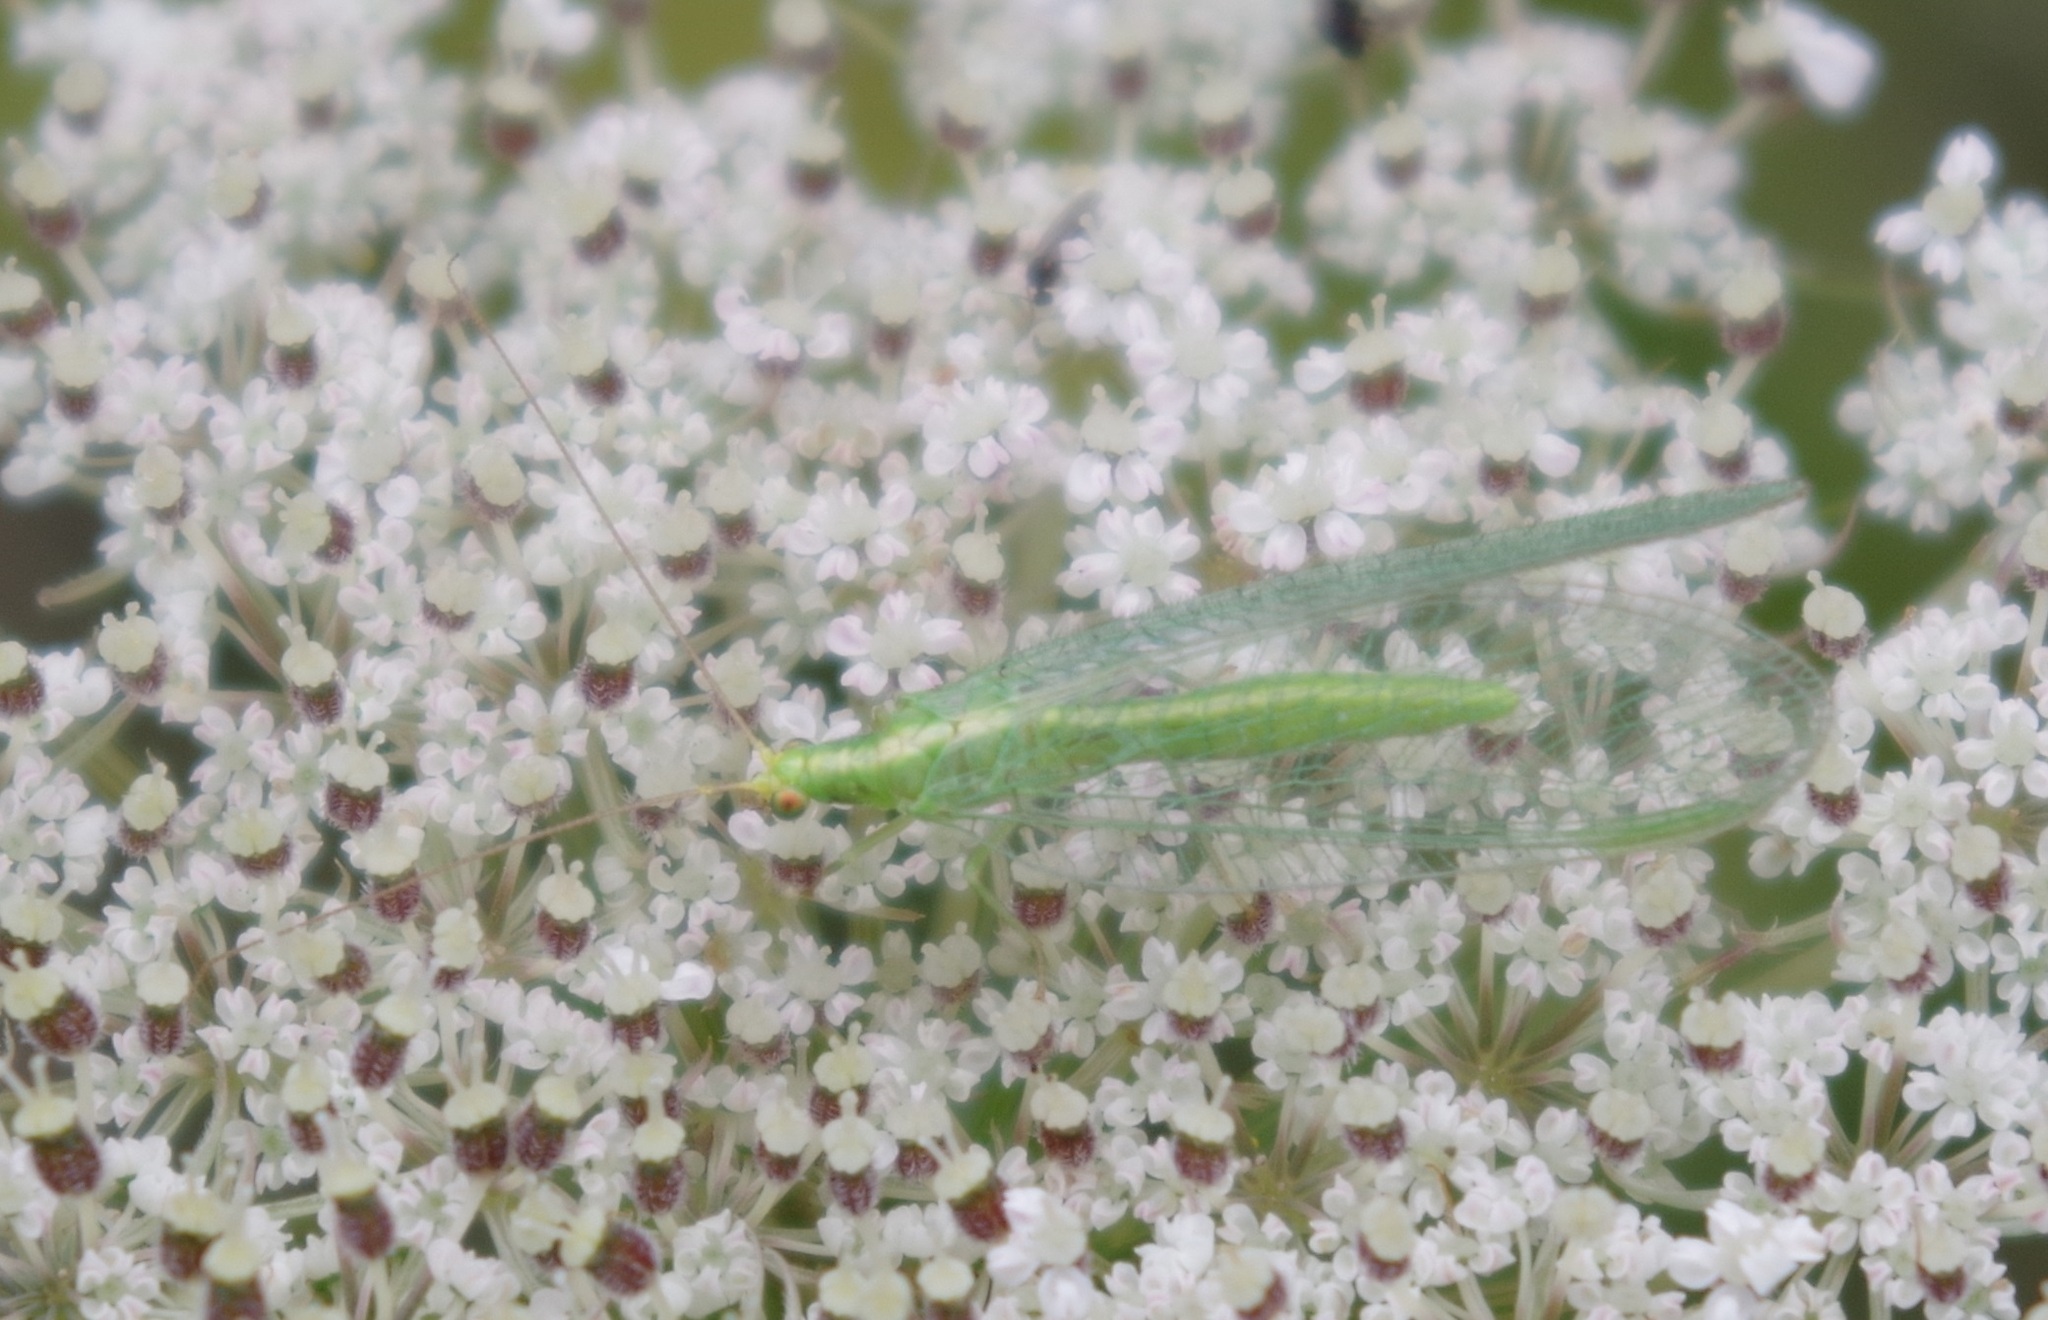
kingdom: Animalia
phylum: Arthropoda
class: Insecta
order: Neuroptera
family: Chrysopidae
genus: Chrysoperla
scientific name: Chrysoperla
